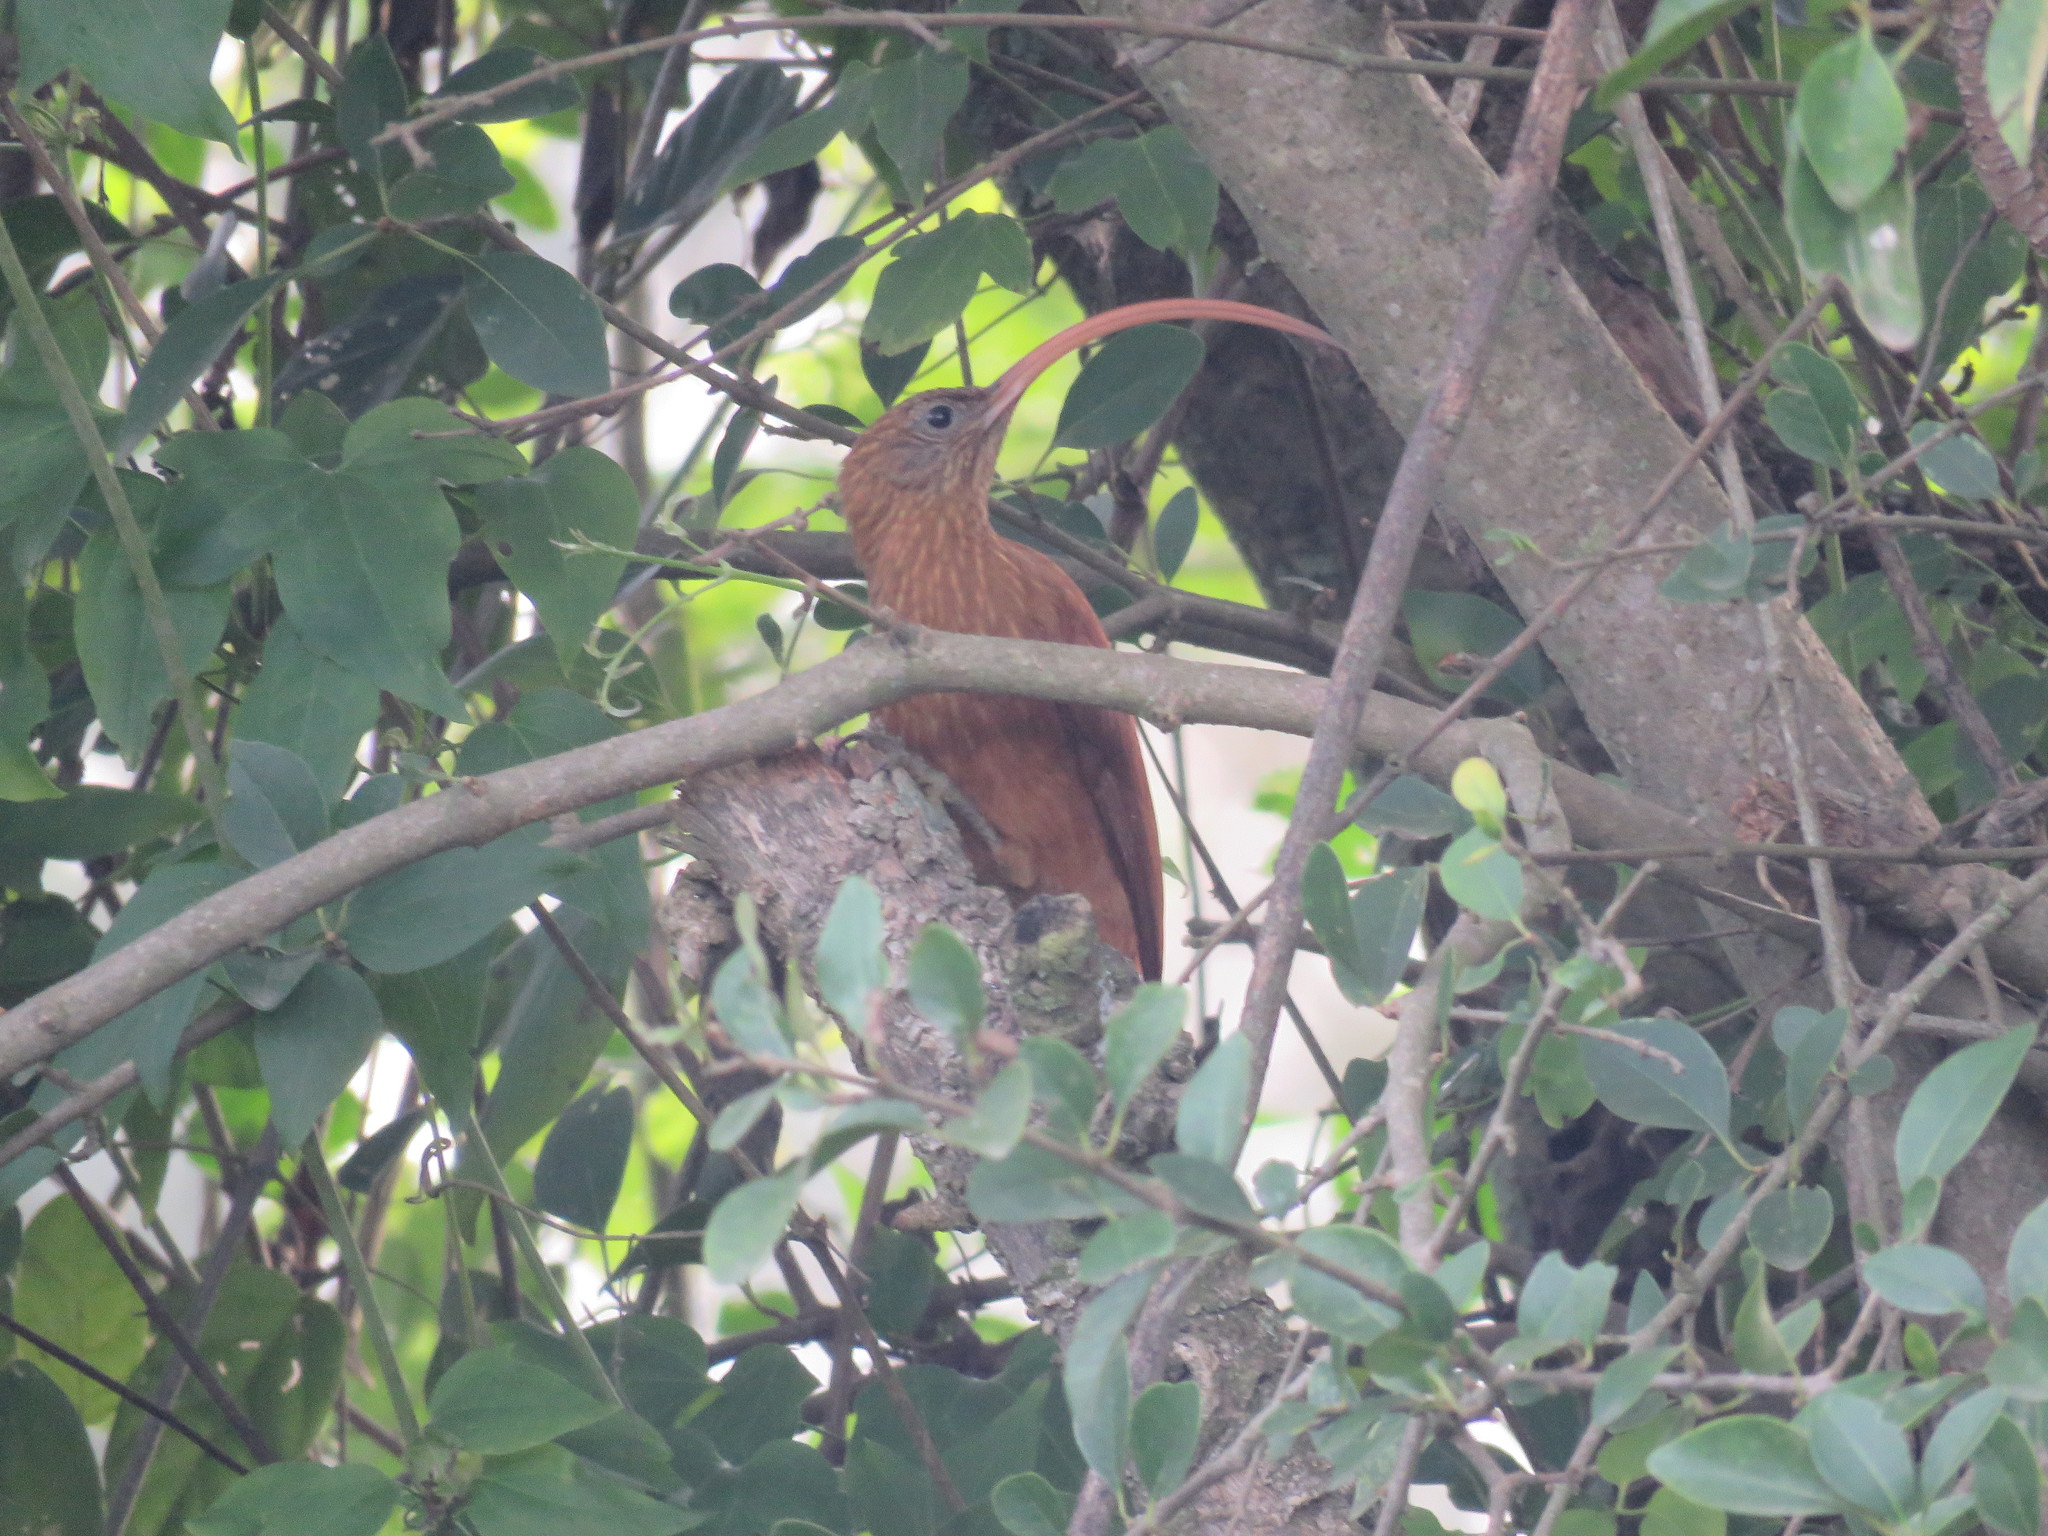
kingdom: Animalia
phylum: Chordata
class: Aves
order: Passeriformes
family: Furnariidae
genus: Campylorhamphus
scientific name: Campylorhamphus trochilirostris
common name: Red-billed scythebill
